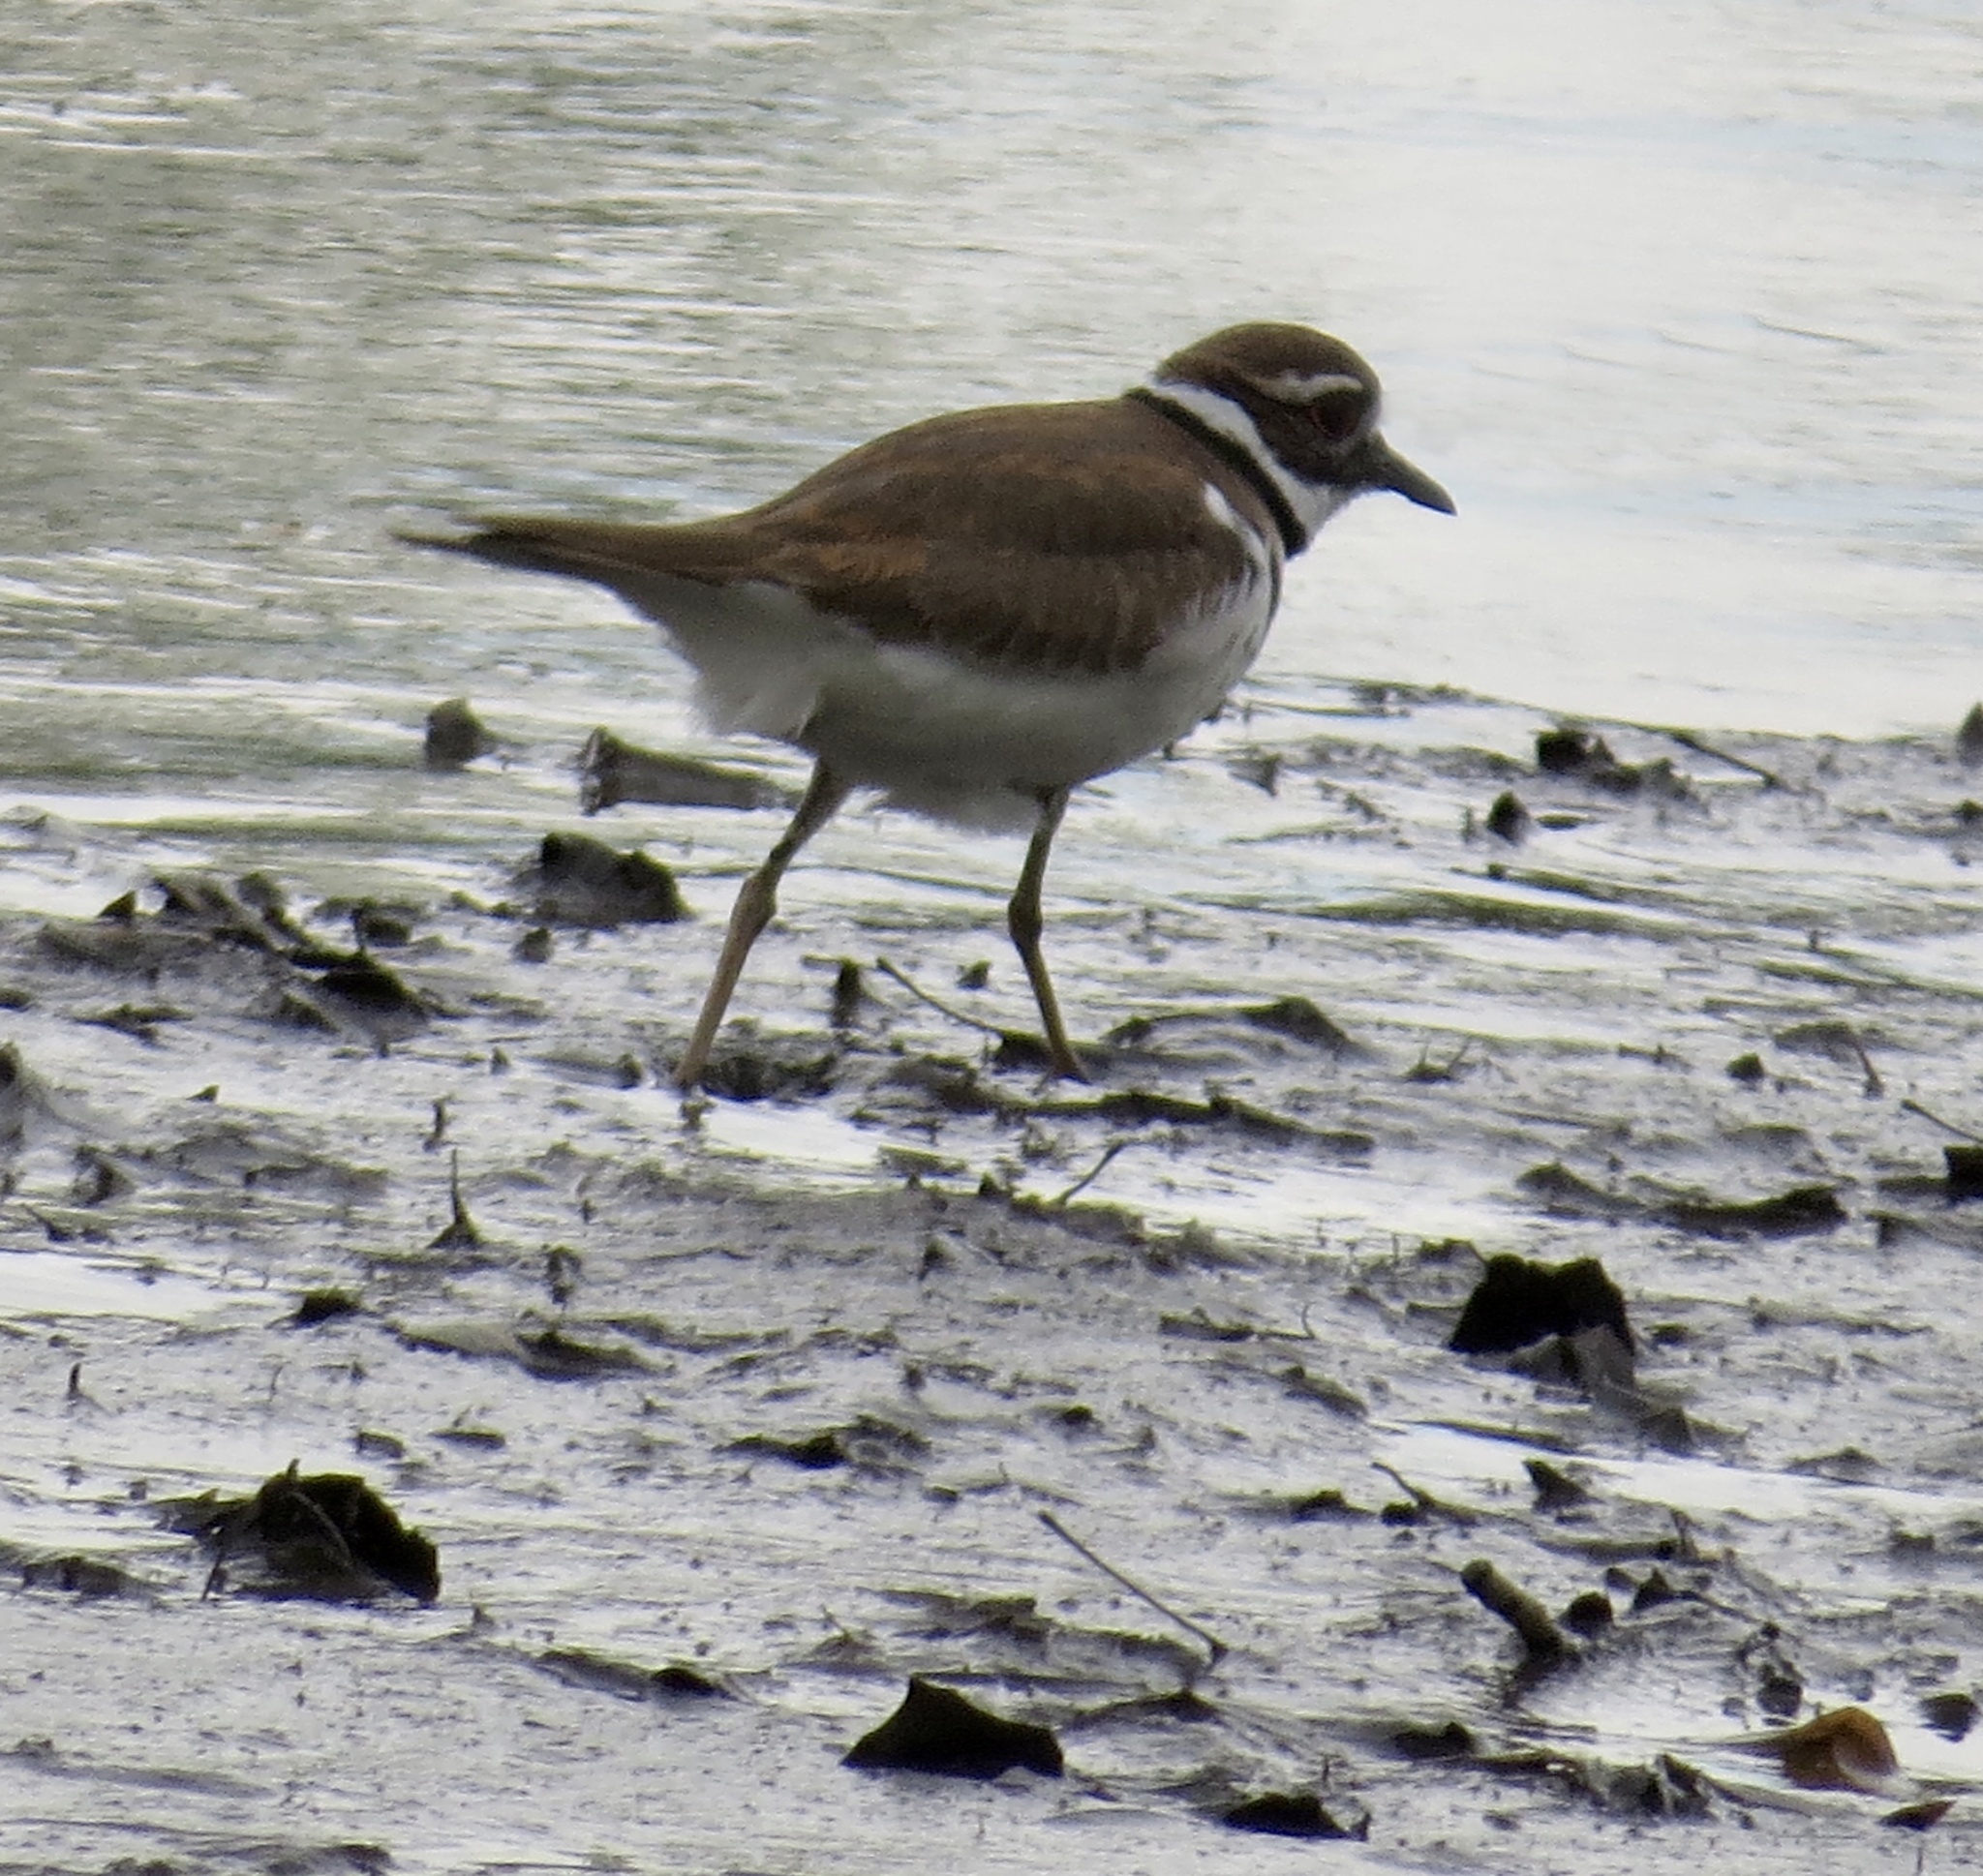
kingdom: Animalia
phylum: Chordata
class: Aves
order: Charadriiformes
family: Charadriidae
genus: Charadrius
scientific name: Charadrius vociferus
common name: Killdeer
